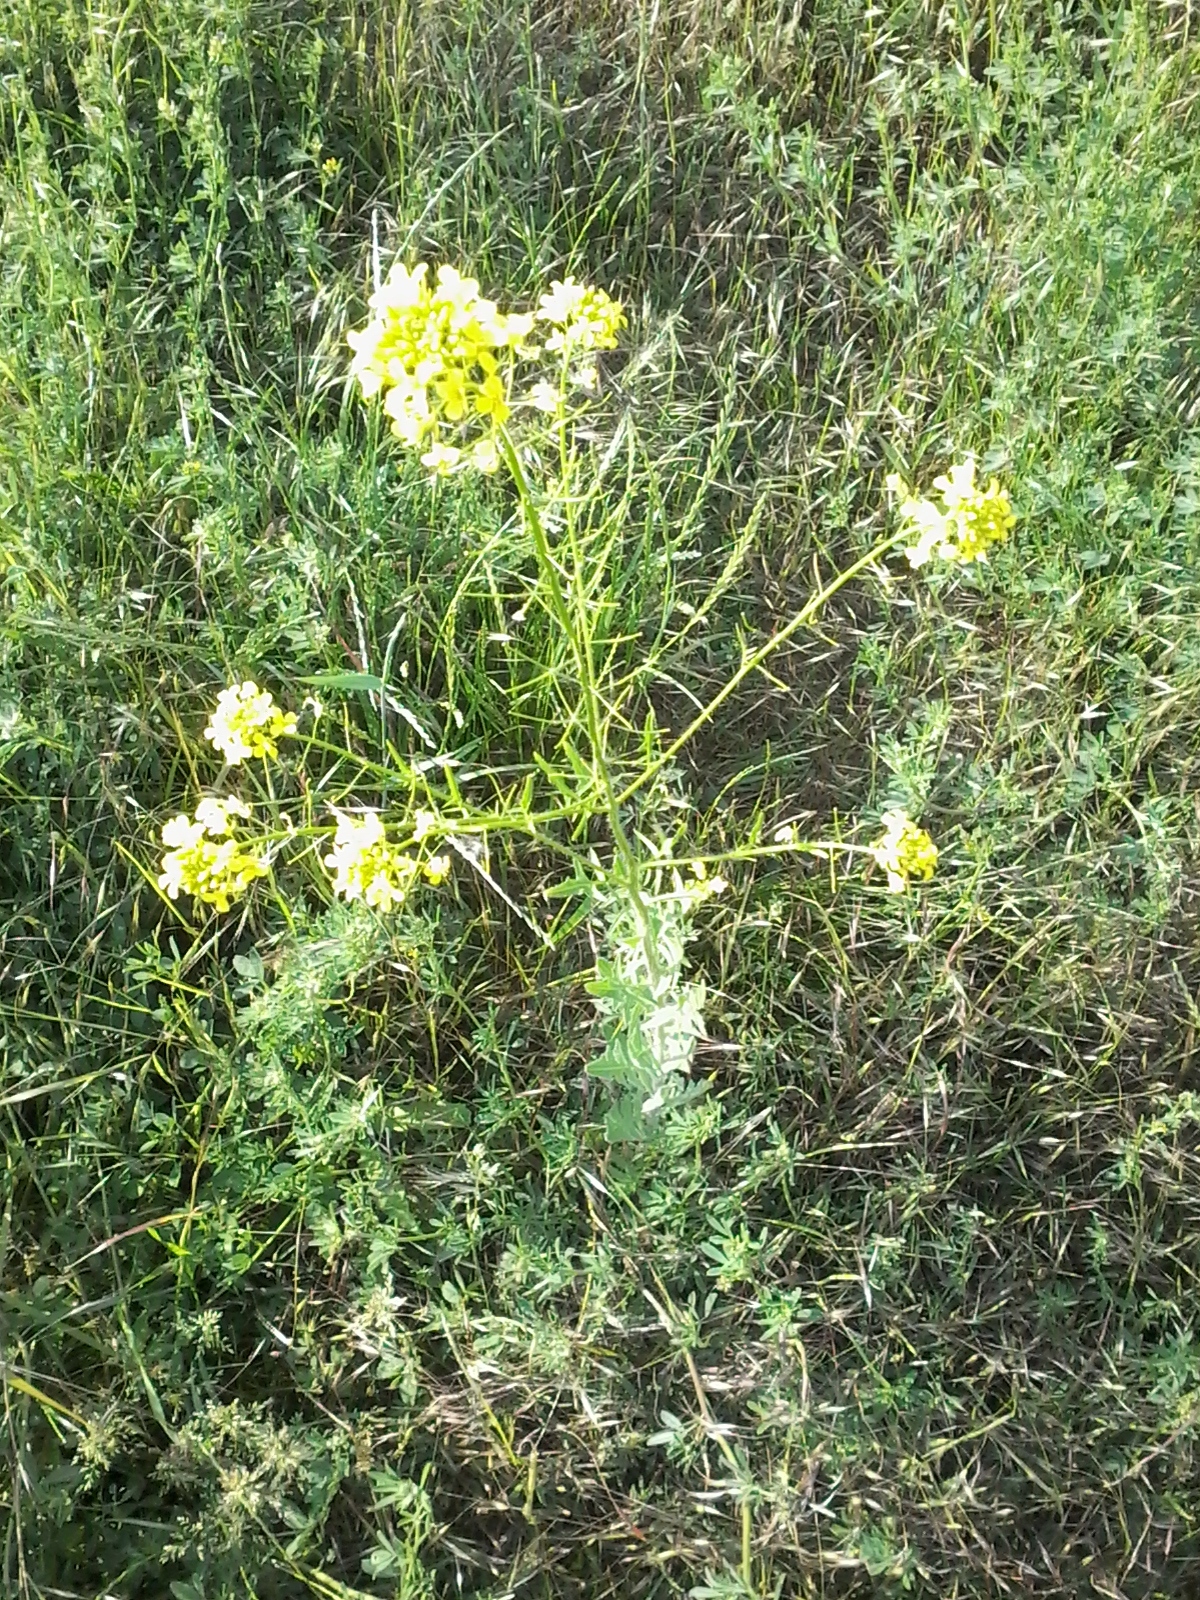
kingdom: Plantae
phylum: Tracheophyta
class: Magnoliopsida
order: Brassicales
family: Brassicaceae
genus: Sisymbrium
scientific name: Sisymbrium loeselii
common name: False london-rocket
